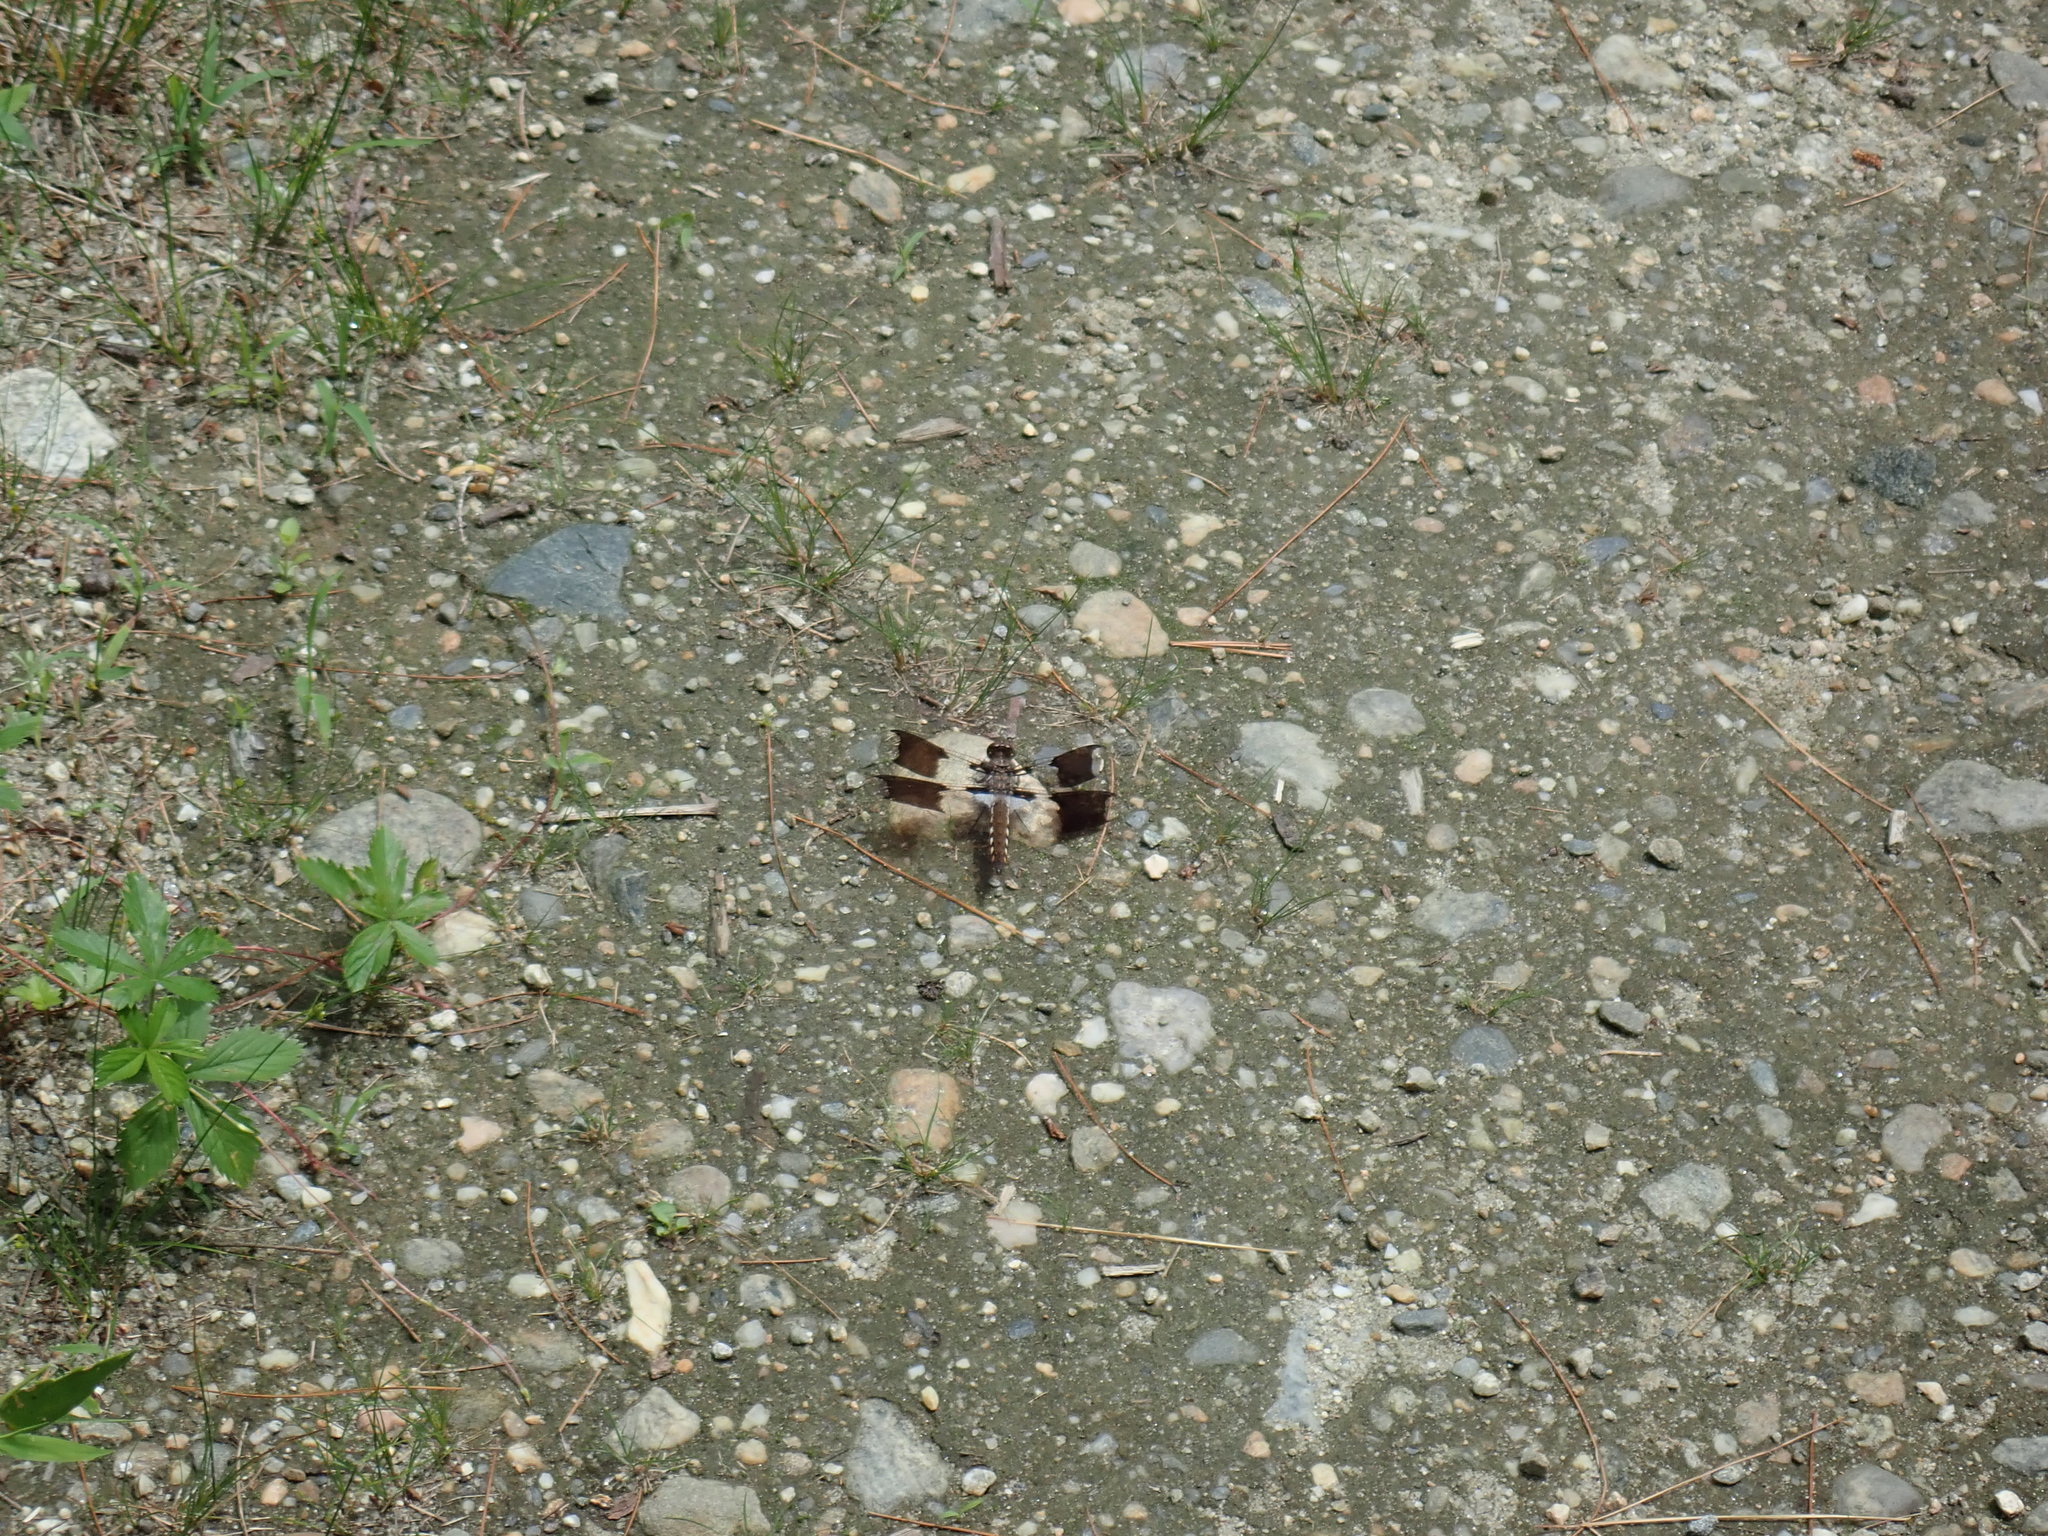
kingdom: Animalia
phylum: Arthropoda
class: Insecta
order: Odonata
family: Libellulidae
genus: Plathemis
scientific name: Plathemis lydia
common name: Common whitetail
